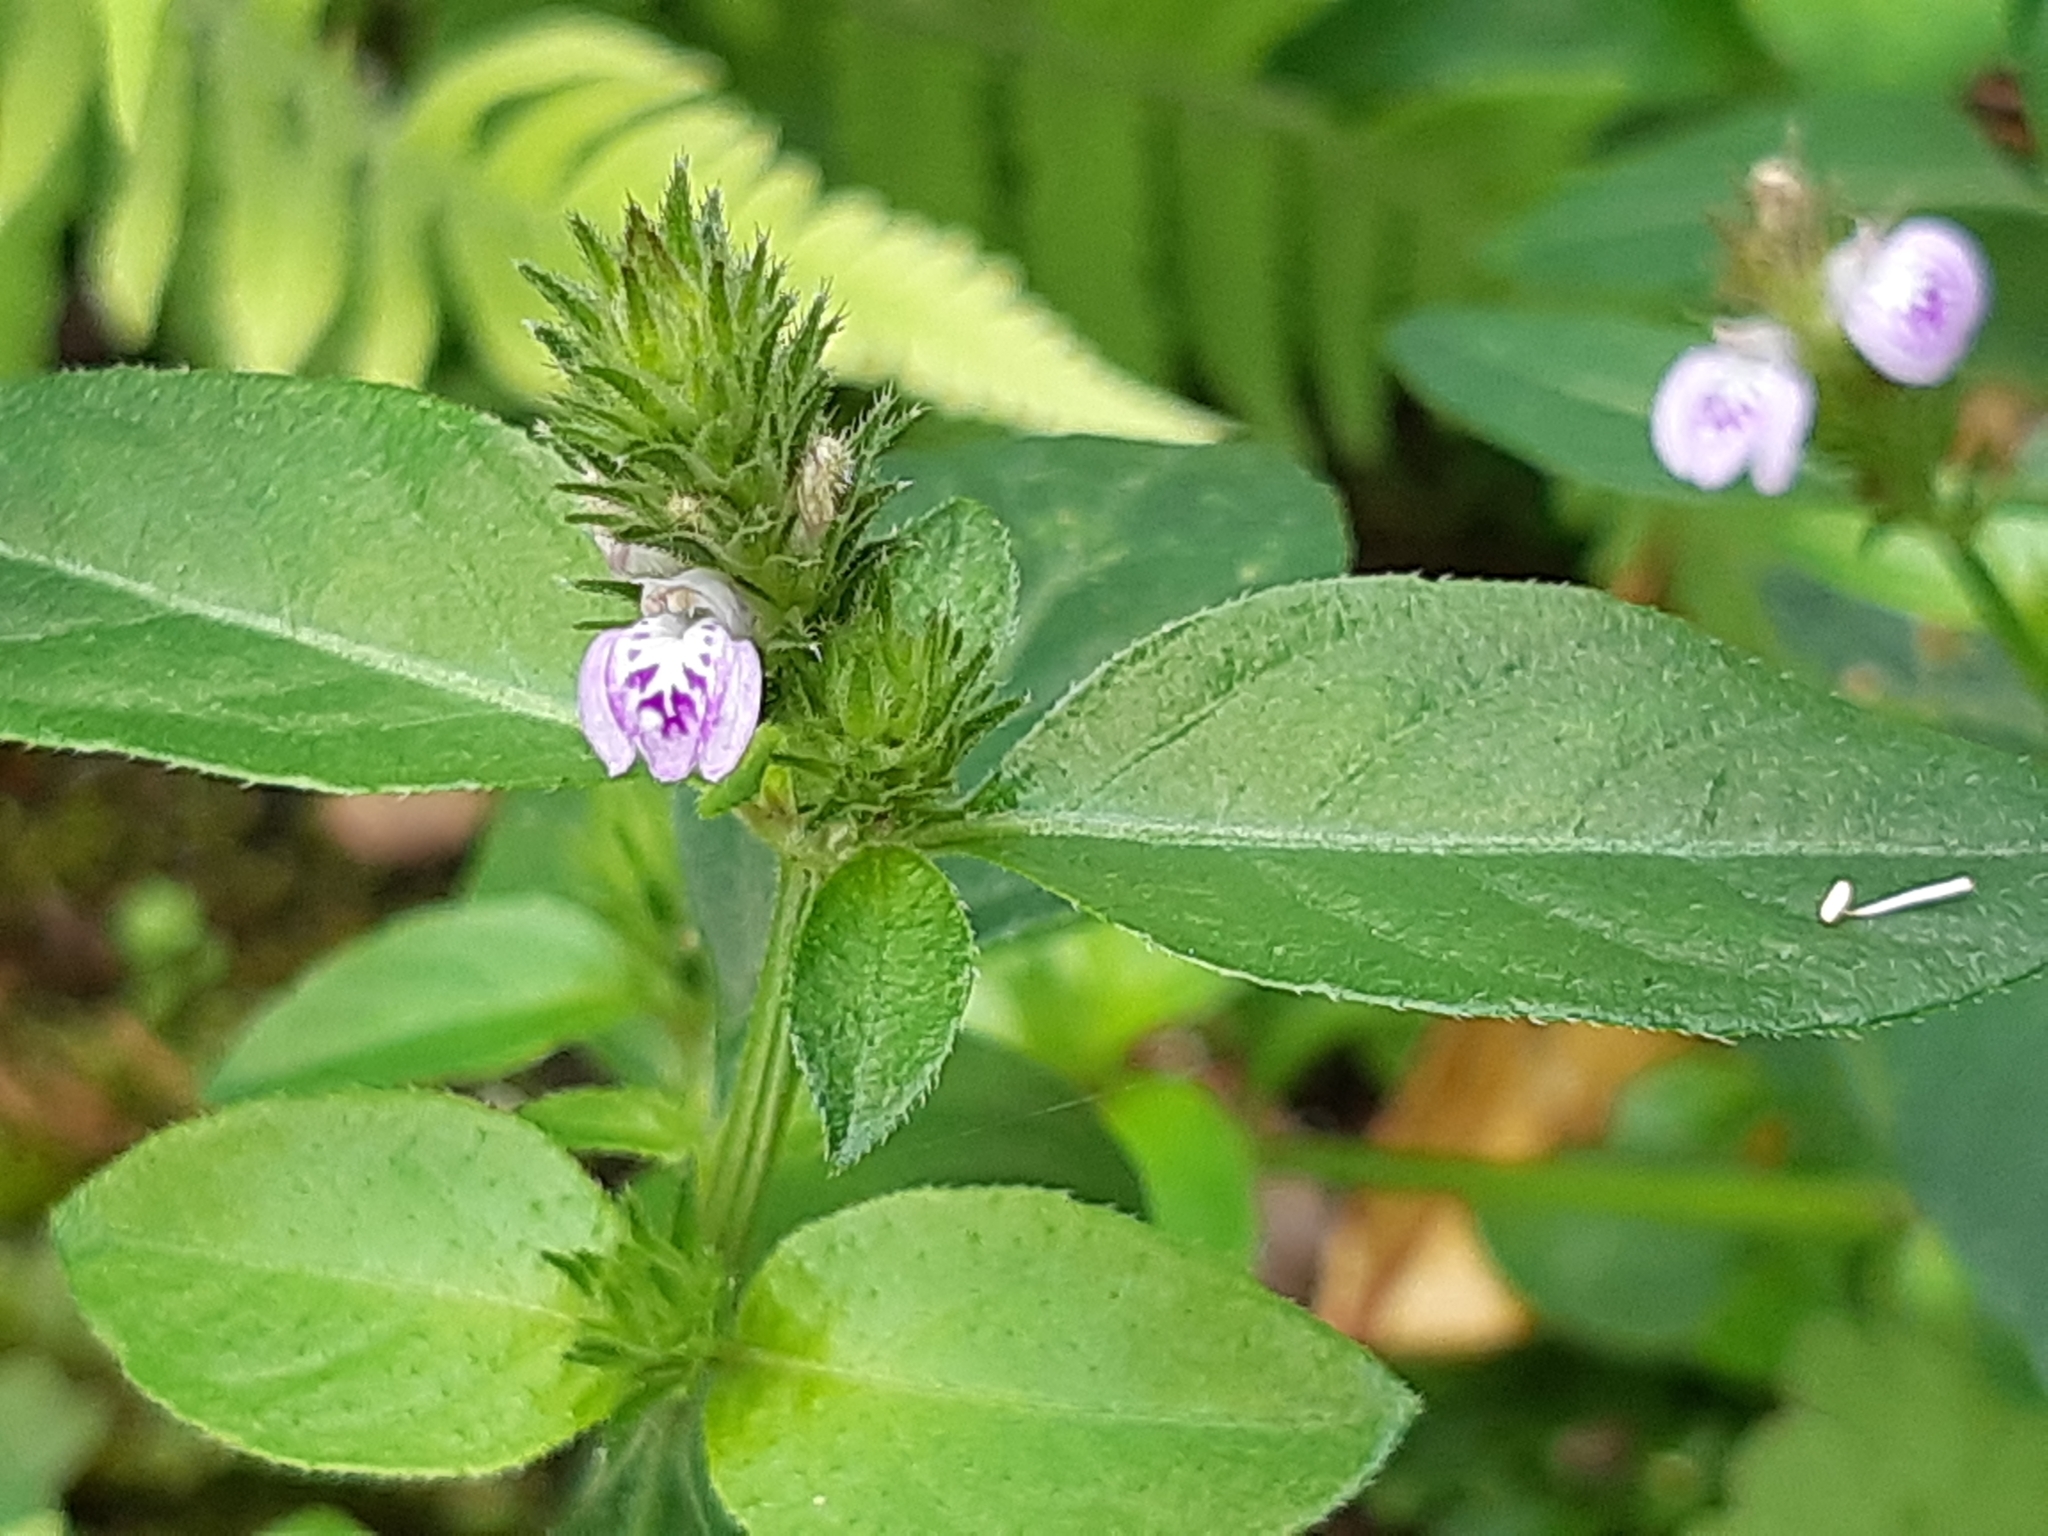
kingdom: Plantae
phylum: Tracheophyta
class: Magnoliopsida
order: Lamiales
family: Acanthaceae
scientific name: Acanthaceae
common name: Acanthaceae
